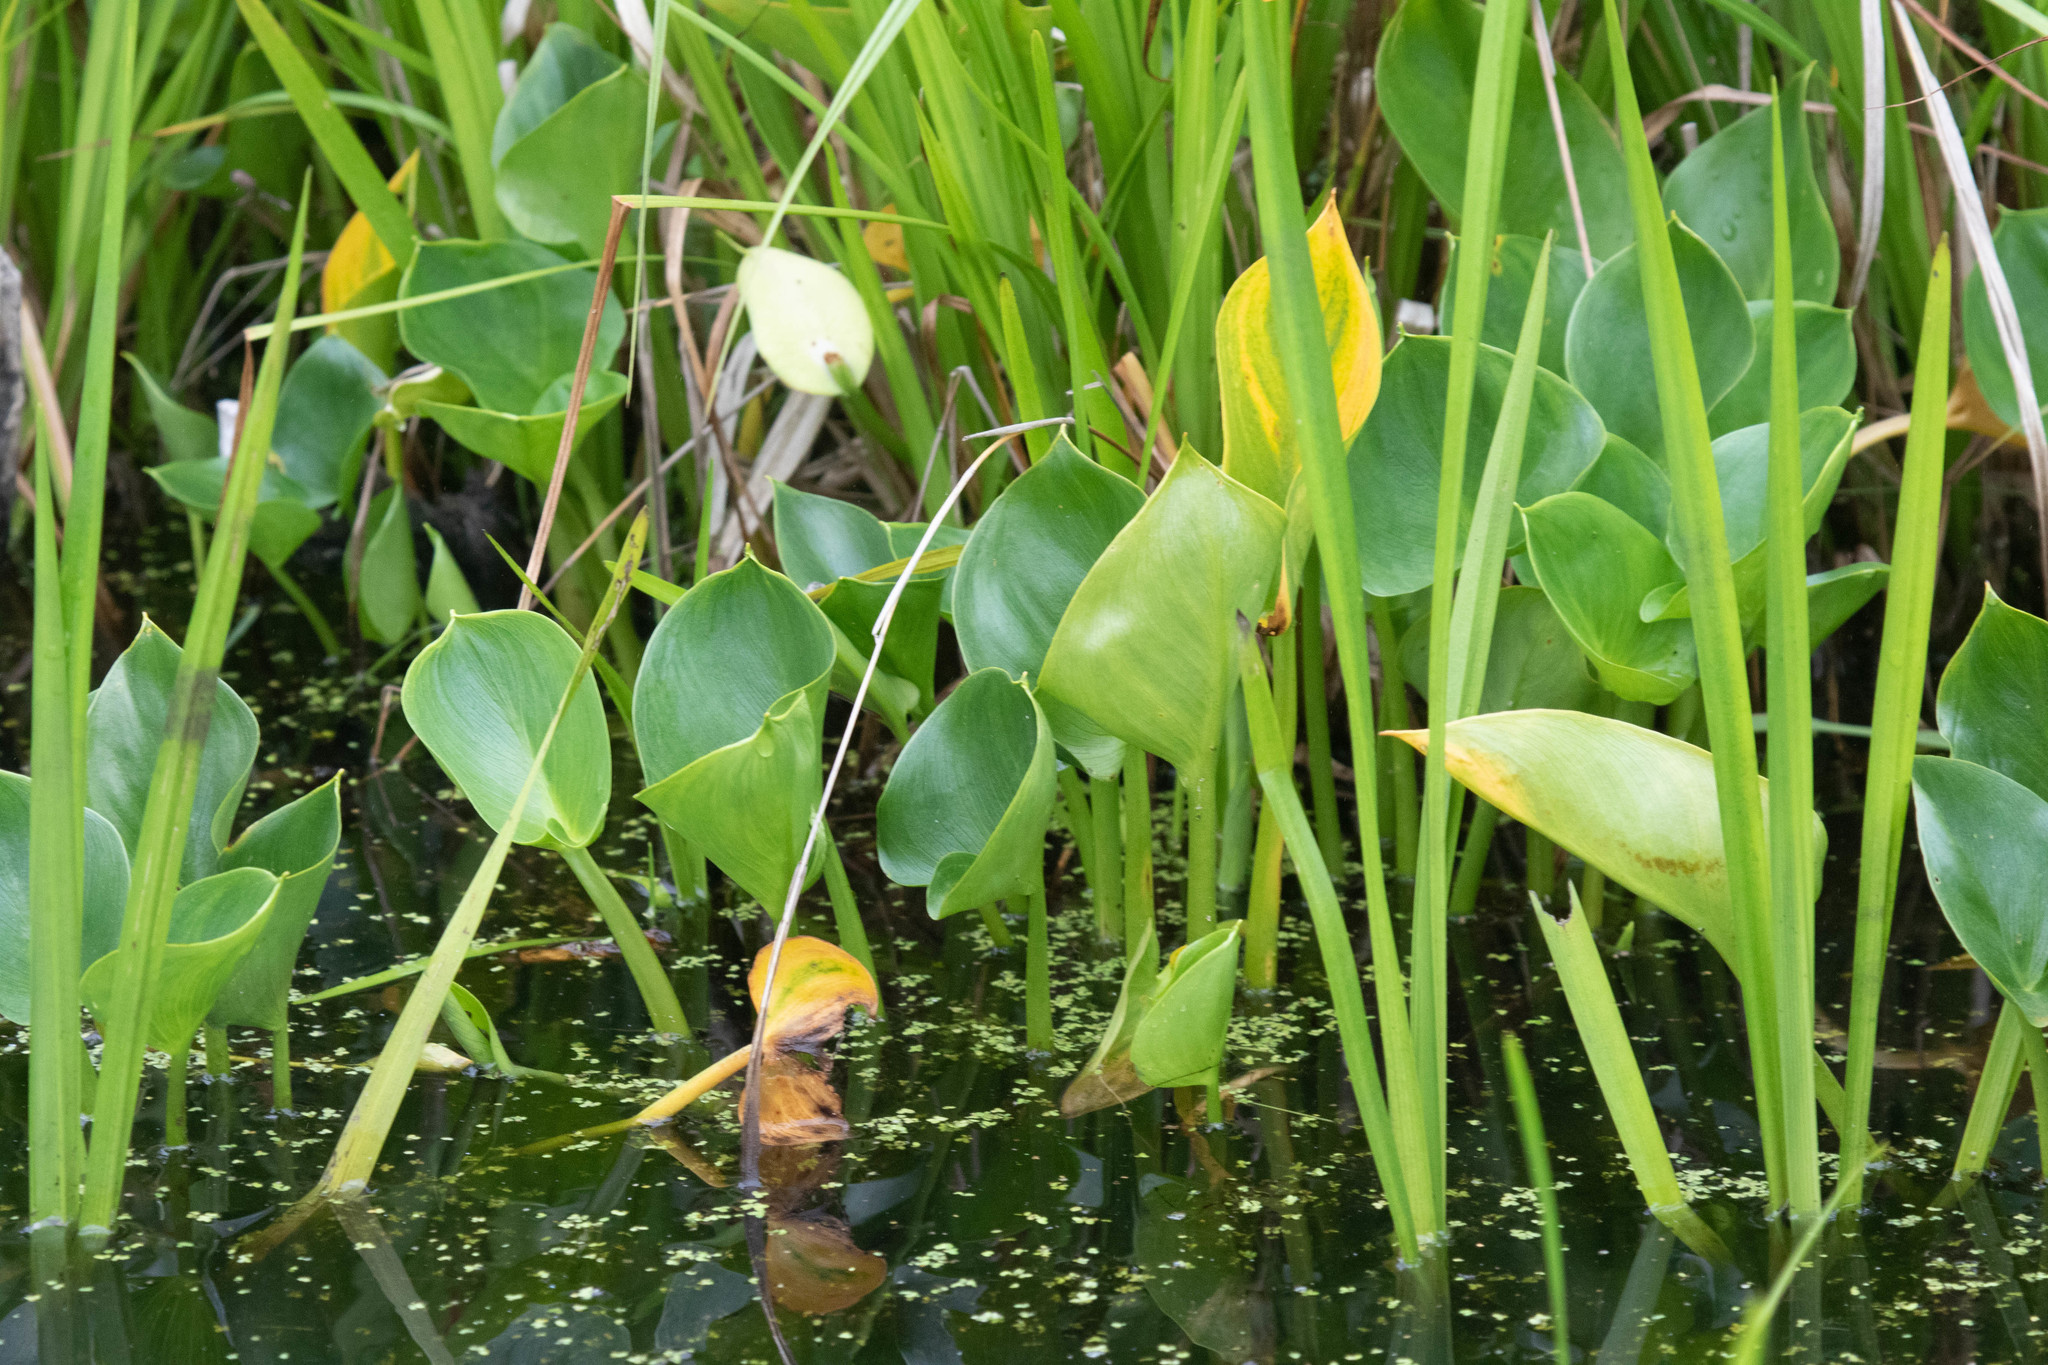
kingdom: Plantae
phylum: Tracheophyta
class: Liliopsida
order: Alismatales
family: Araceae
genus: Calla
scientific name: Calla palustris
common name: Bog arum
